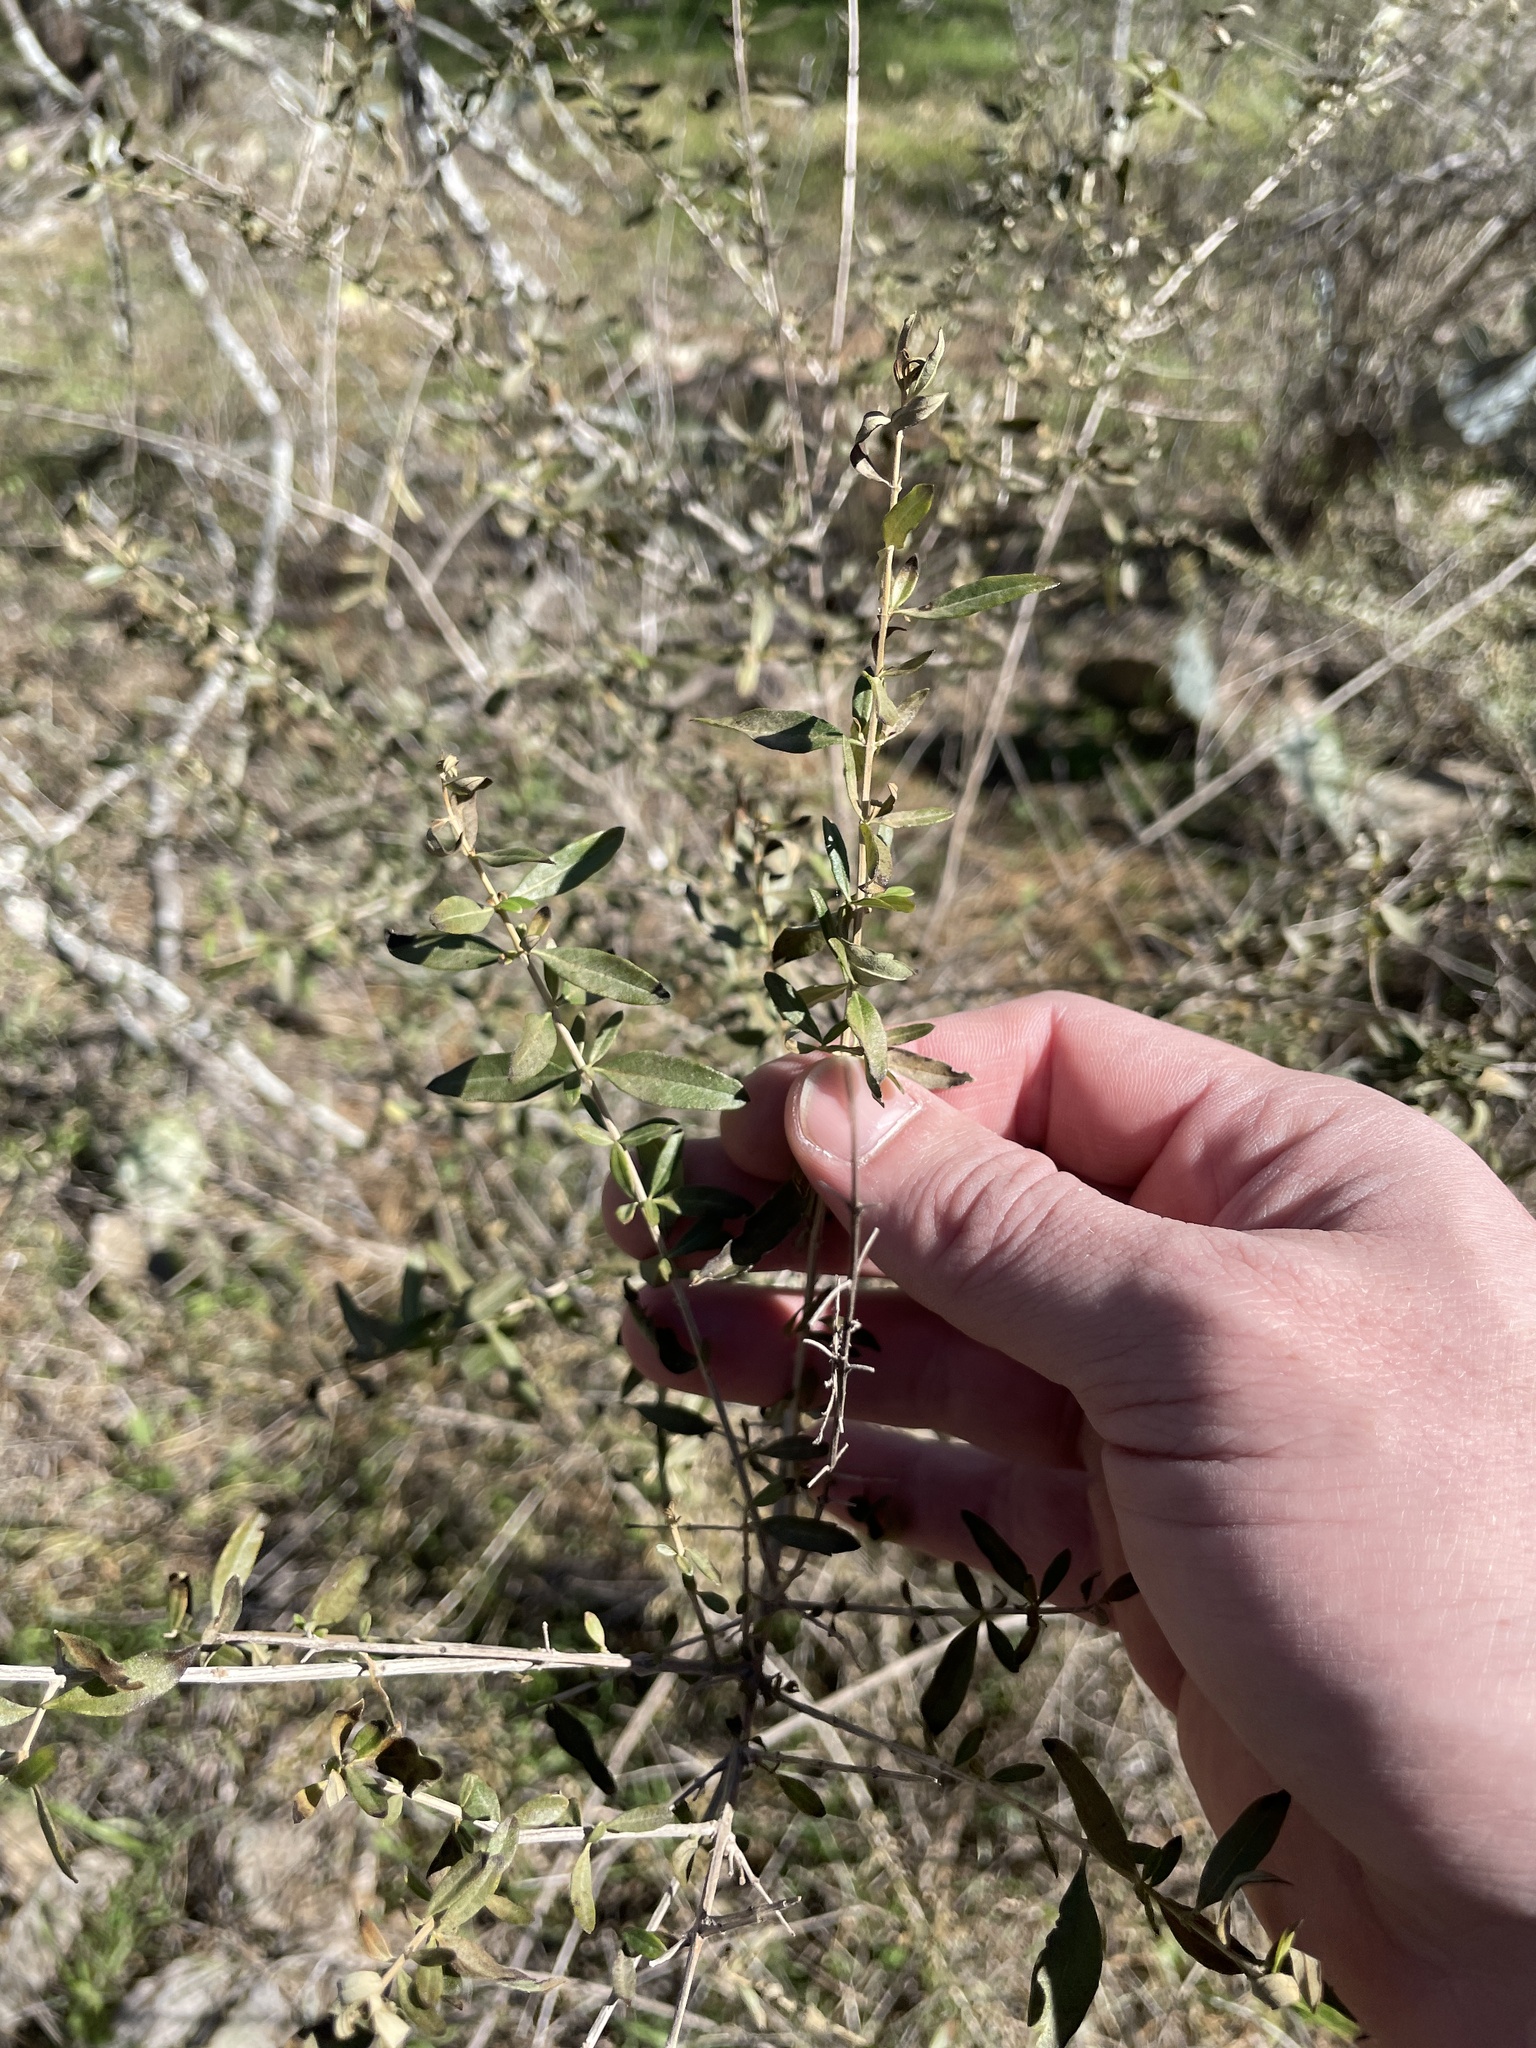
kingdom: Plantae
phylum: Tracheophyta
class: Magnoliopsida
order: Lamiales
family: Verbenaceae
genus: Aloysia
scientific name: Aloysia gratissima
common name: Common bee-brush
